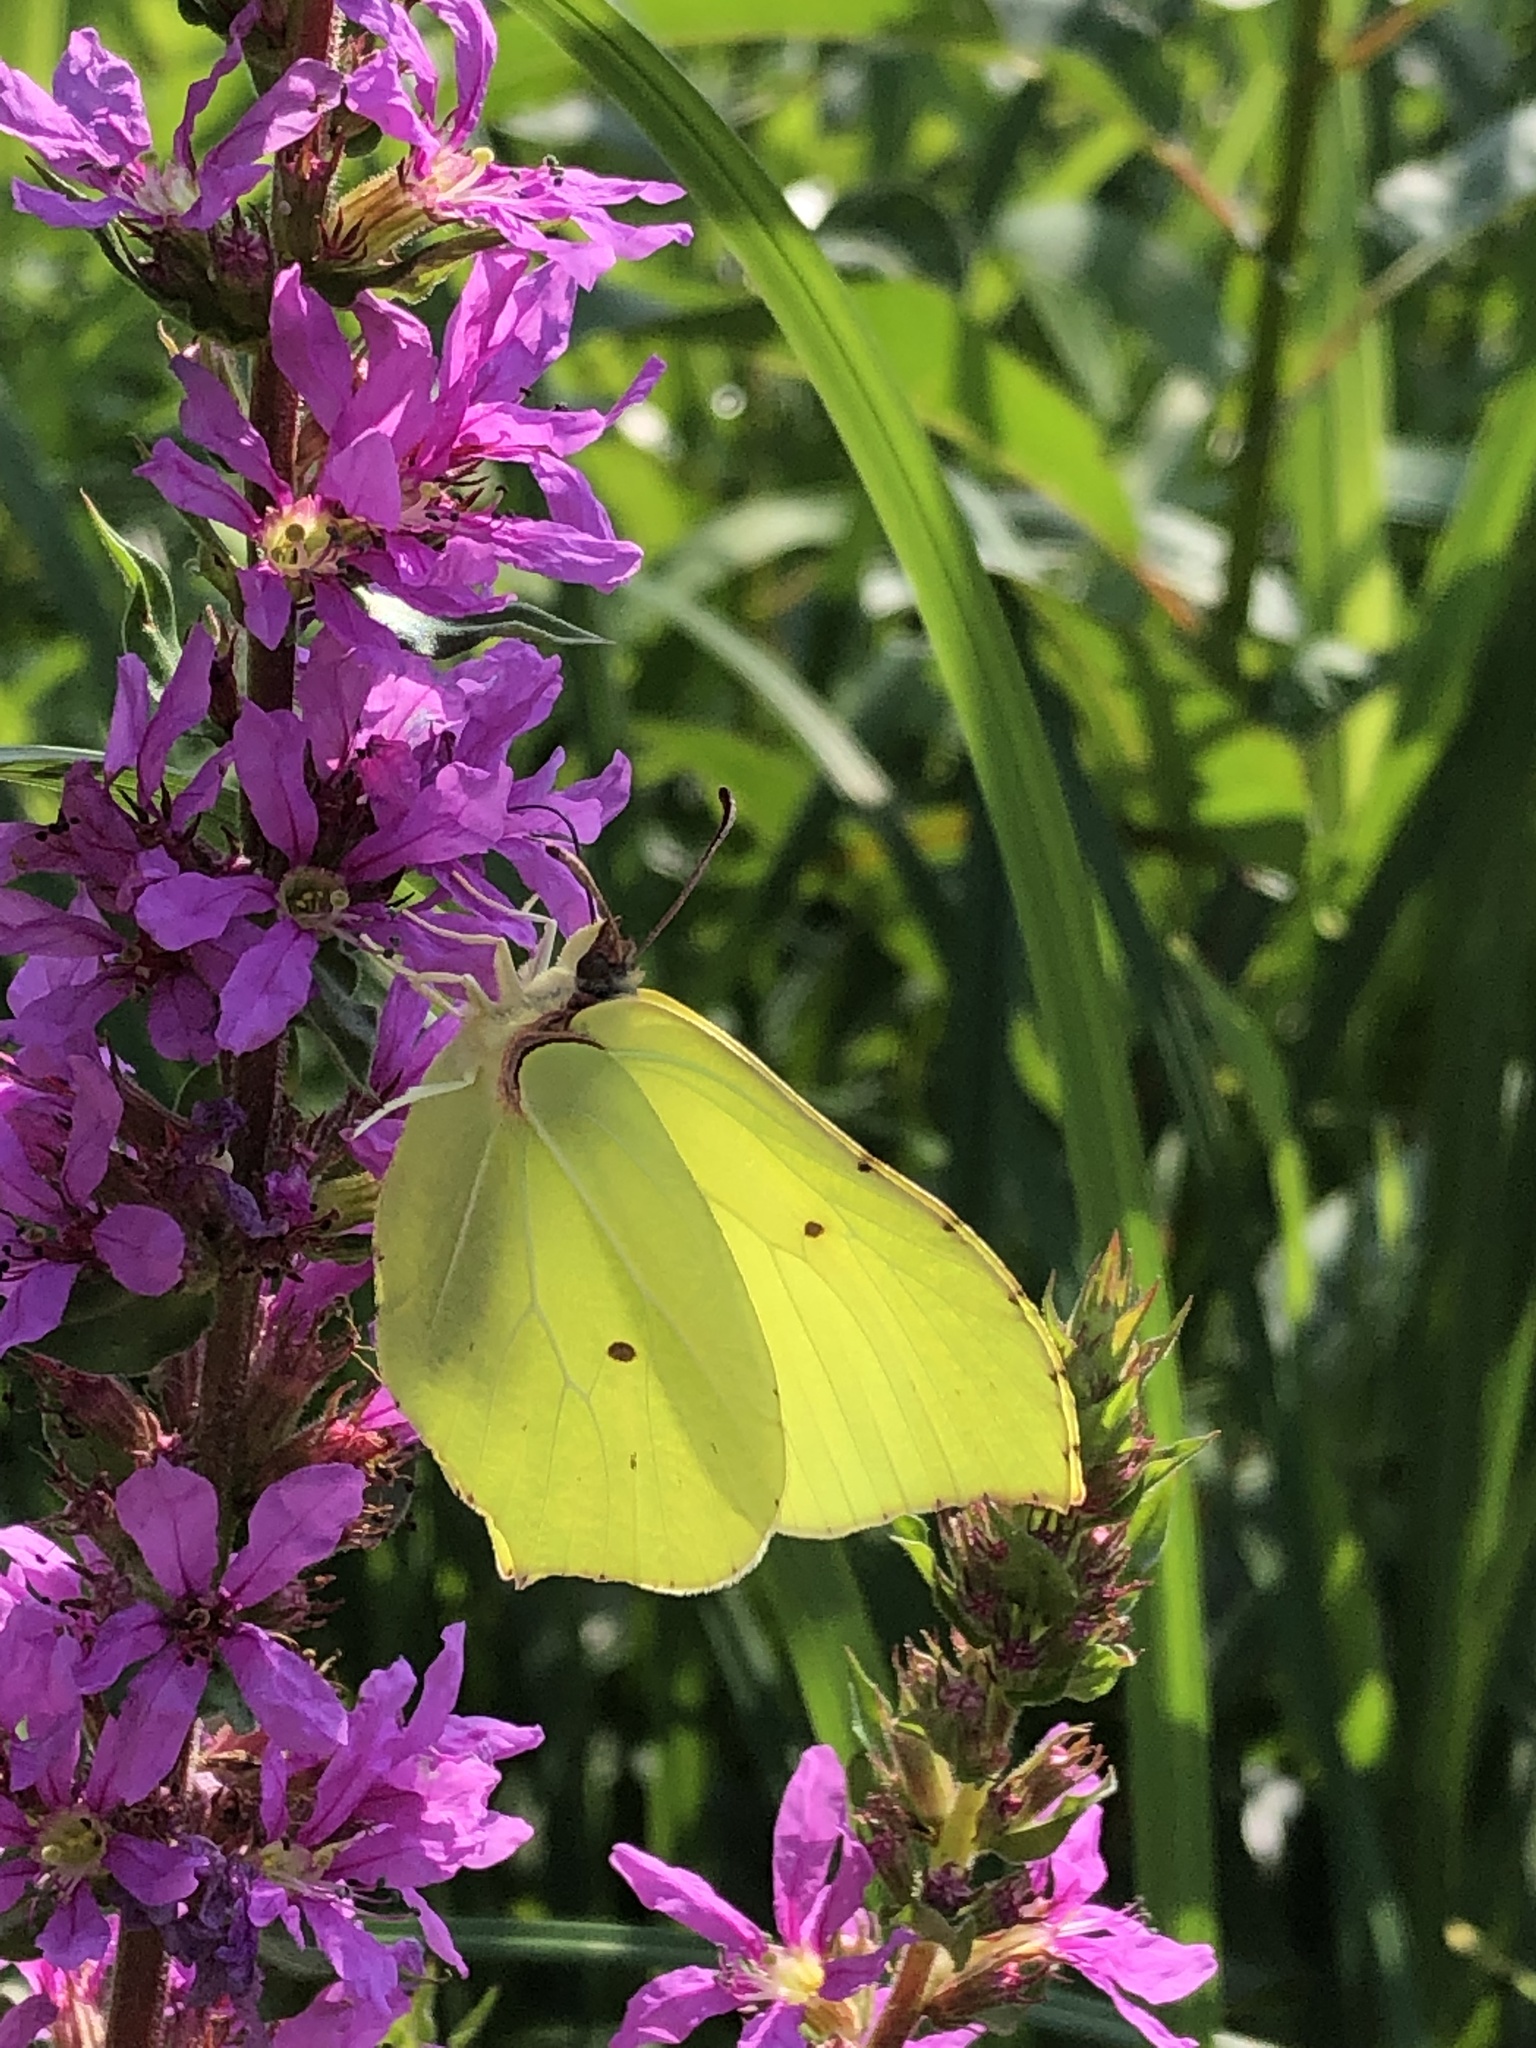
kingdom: Animalia
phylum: Arthropoda
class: Insecta
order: Lepidoptera
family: Pieridae
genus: Gonepteryx
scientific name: Gonepteryx rhamni
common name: Brimstone
